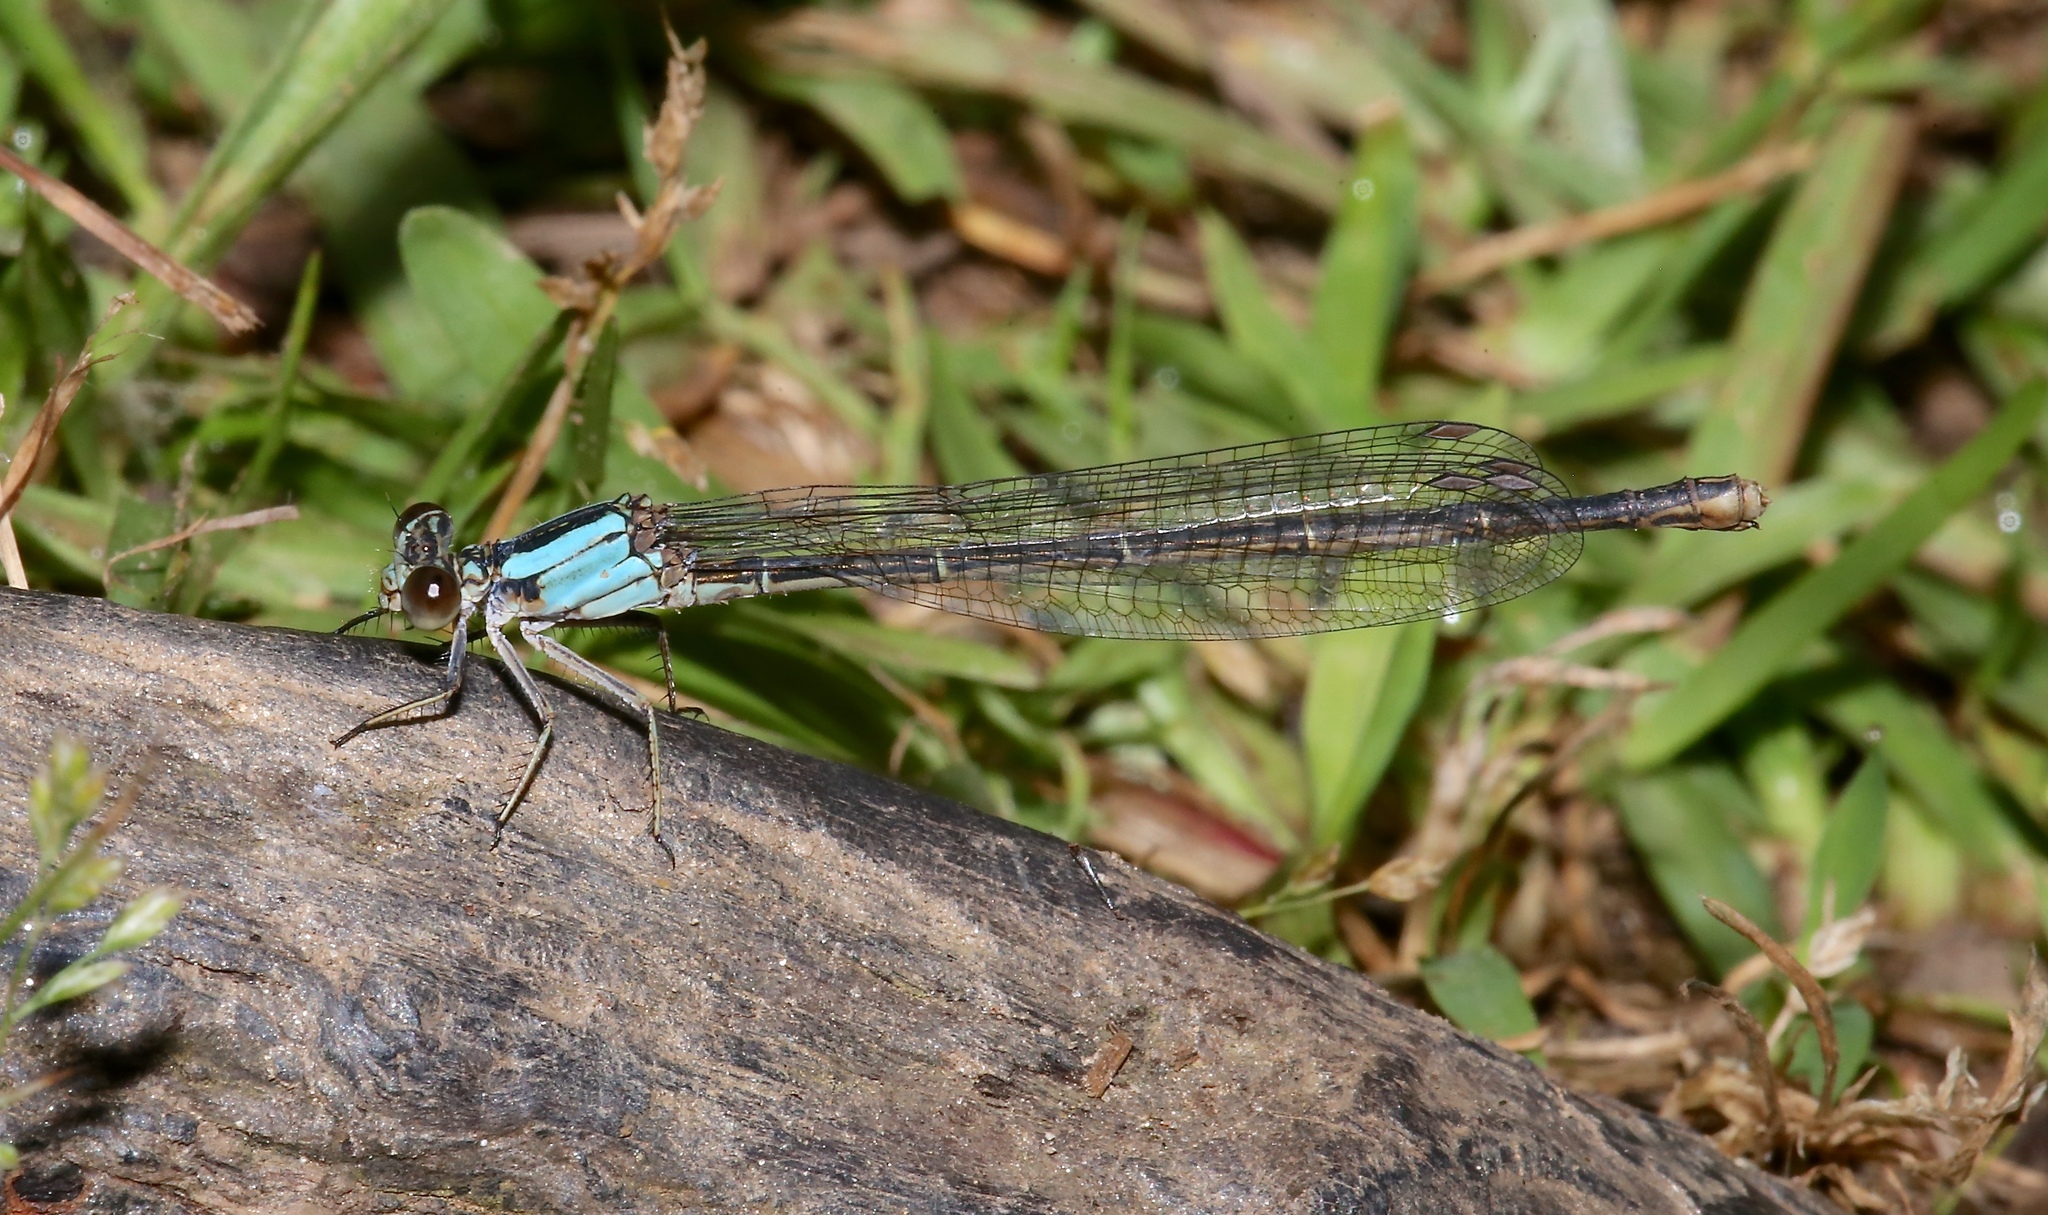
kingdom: Animalia
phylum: Arthropoda
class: Insecta
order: Odonata
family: Coenagrionidae
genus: Argia
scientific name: Argia moesta
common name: Powdered dancer
